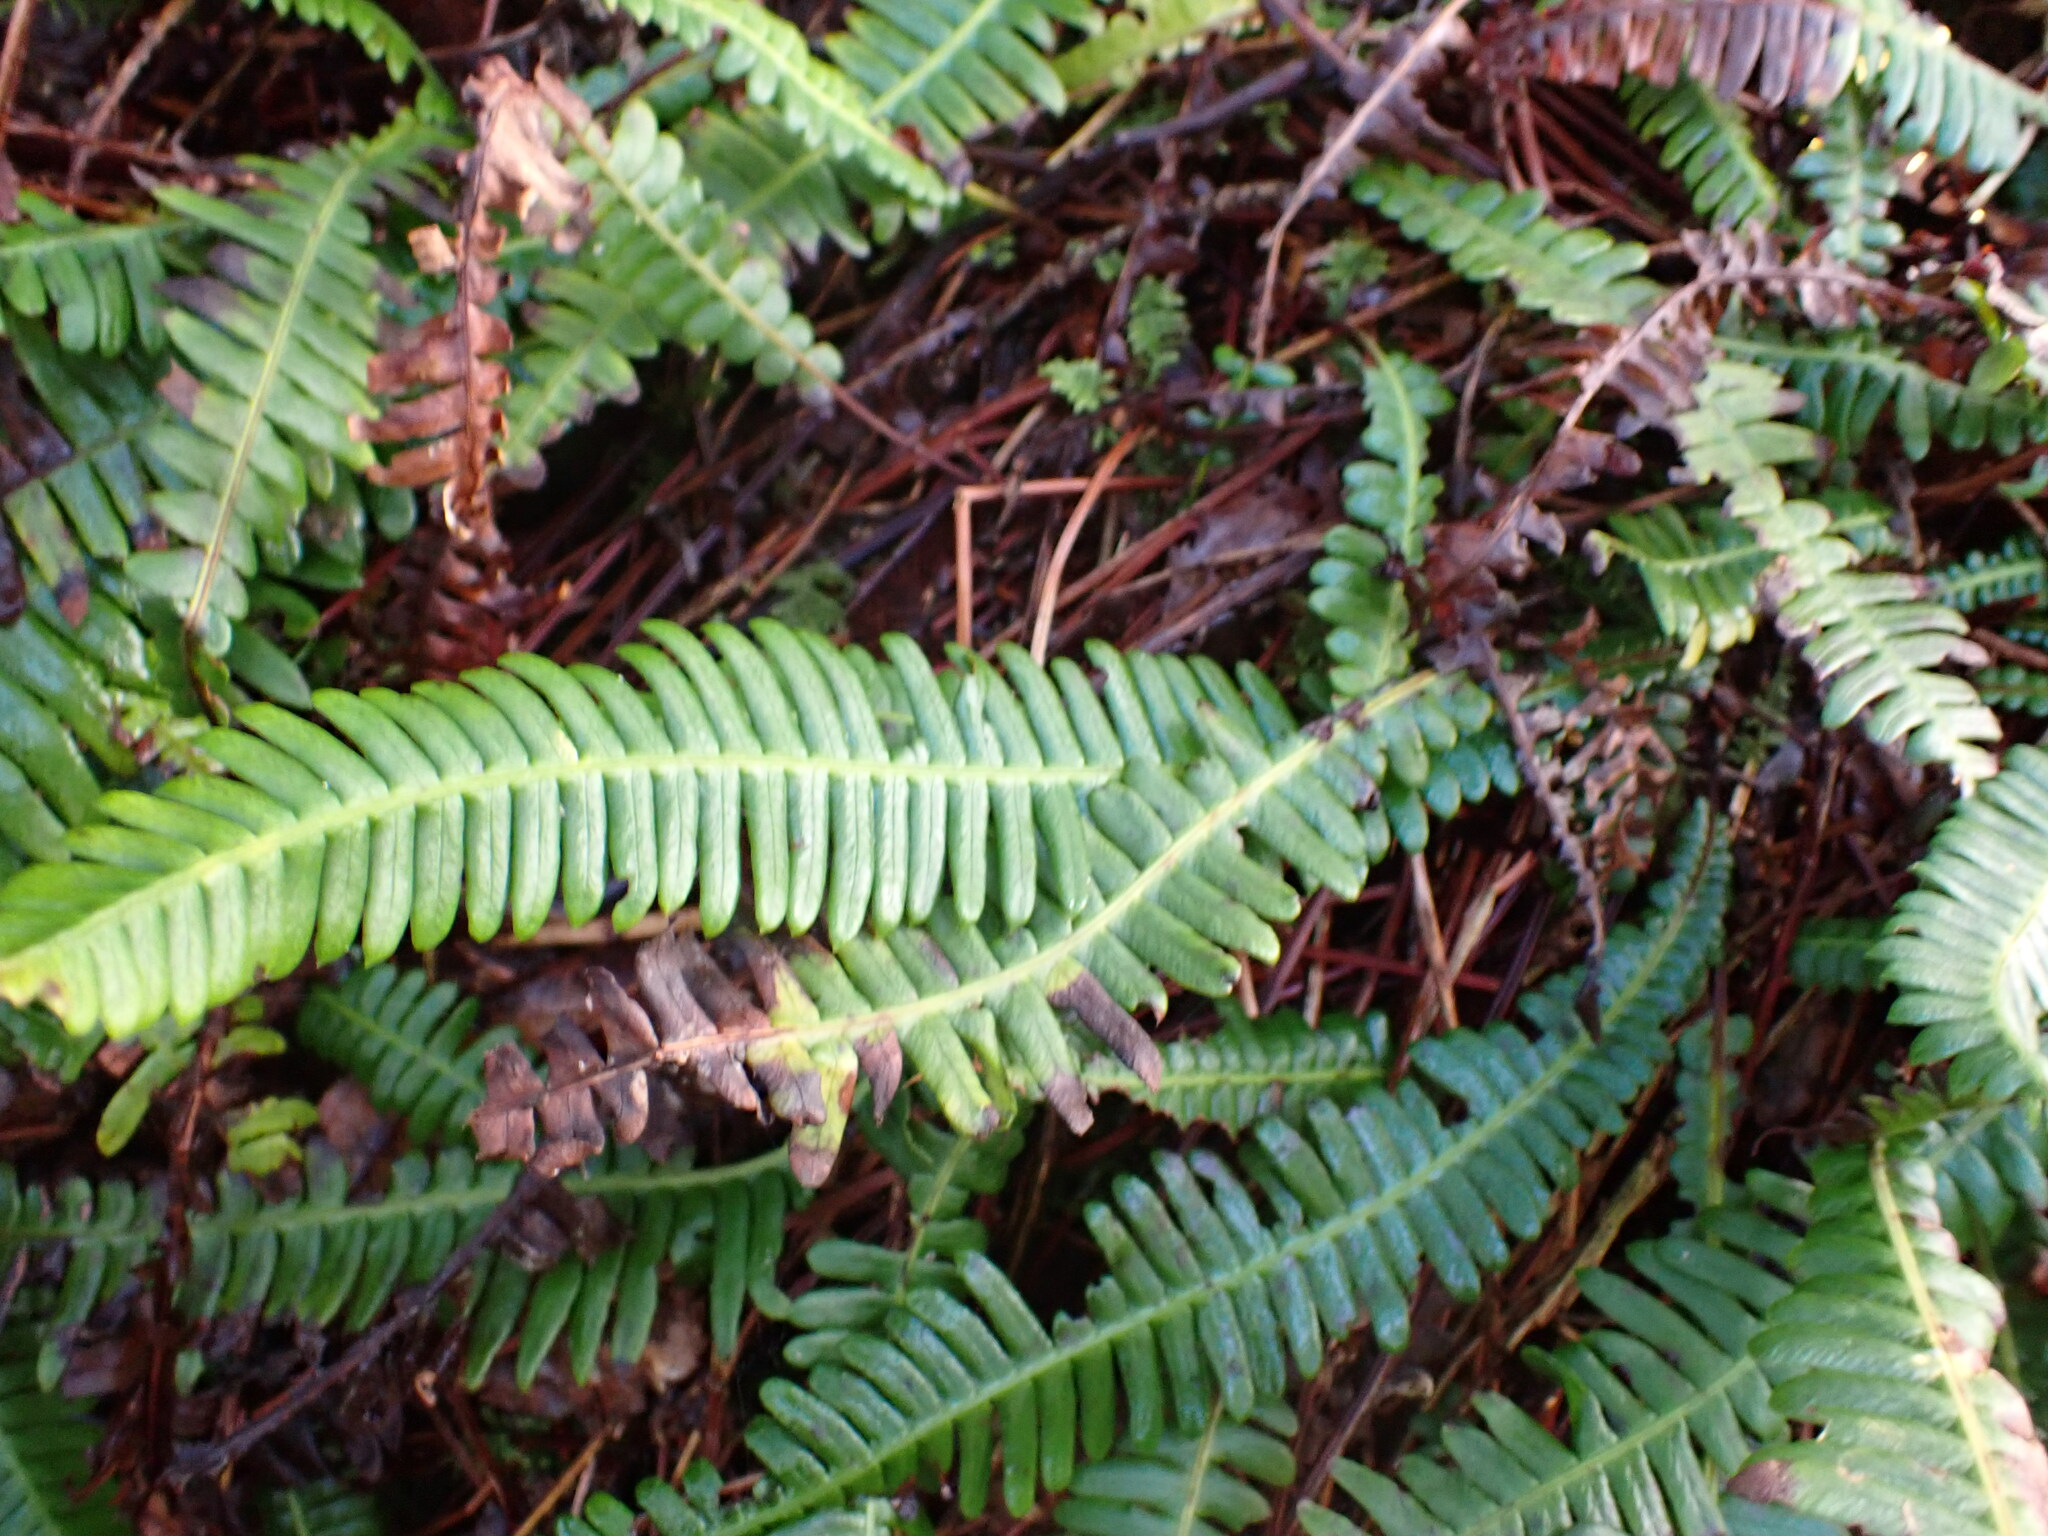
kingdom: Plantae
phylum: Tracheophyta
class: Polypodiopsida
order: Polypodiales
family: Blechnaceae
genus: Struthiopteris
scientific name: Struthiopteris spicant
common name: Deer fern
